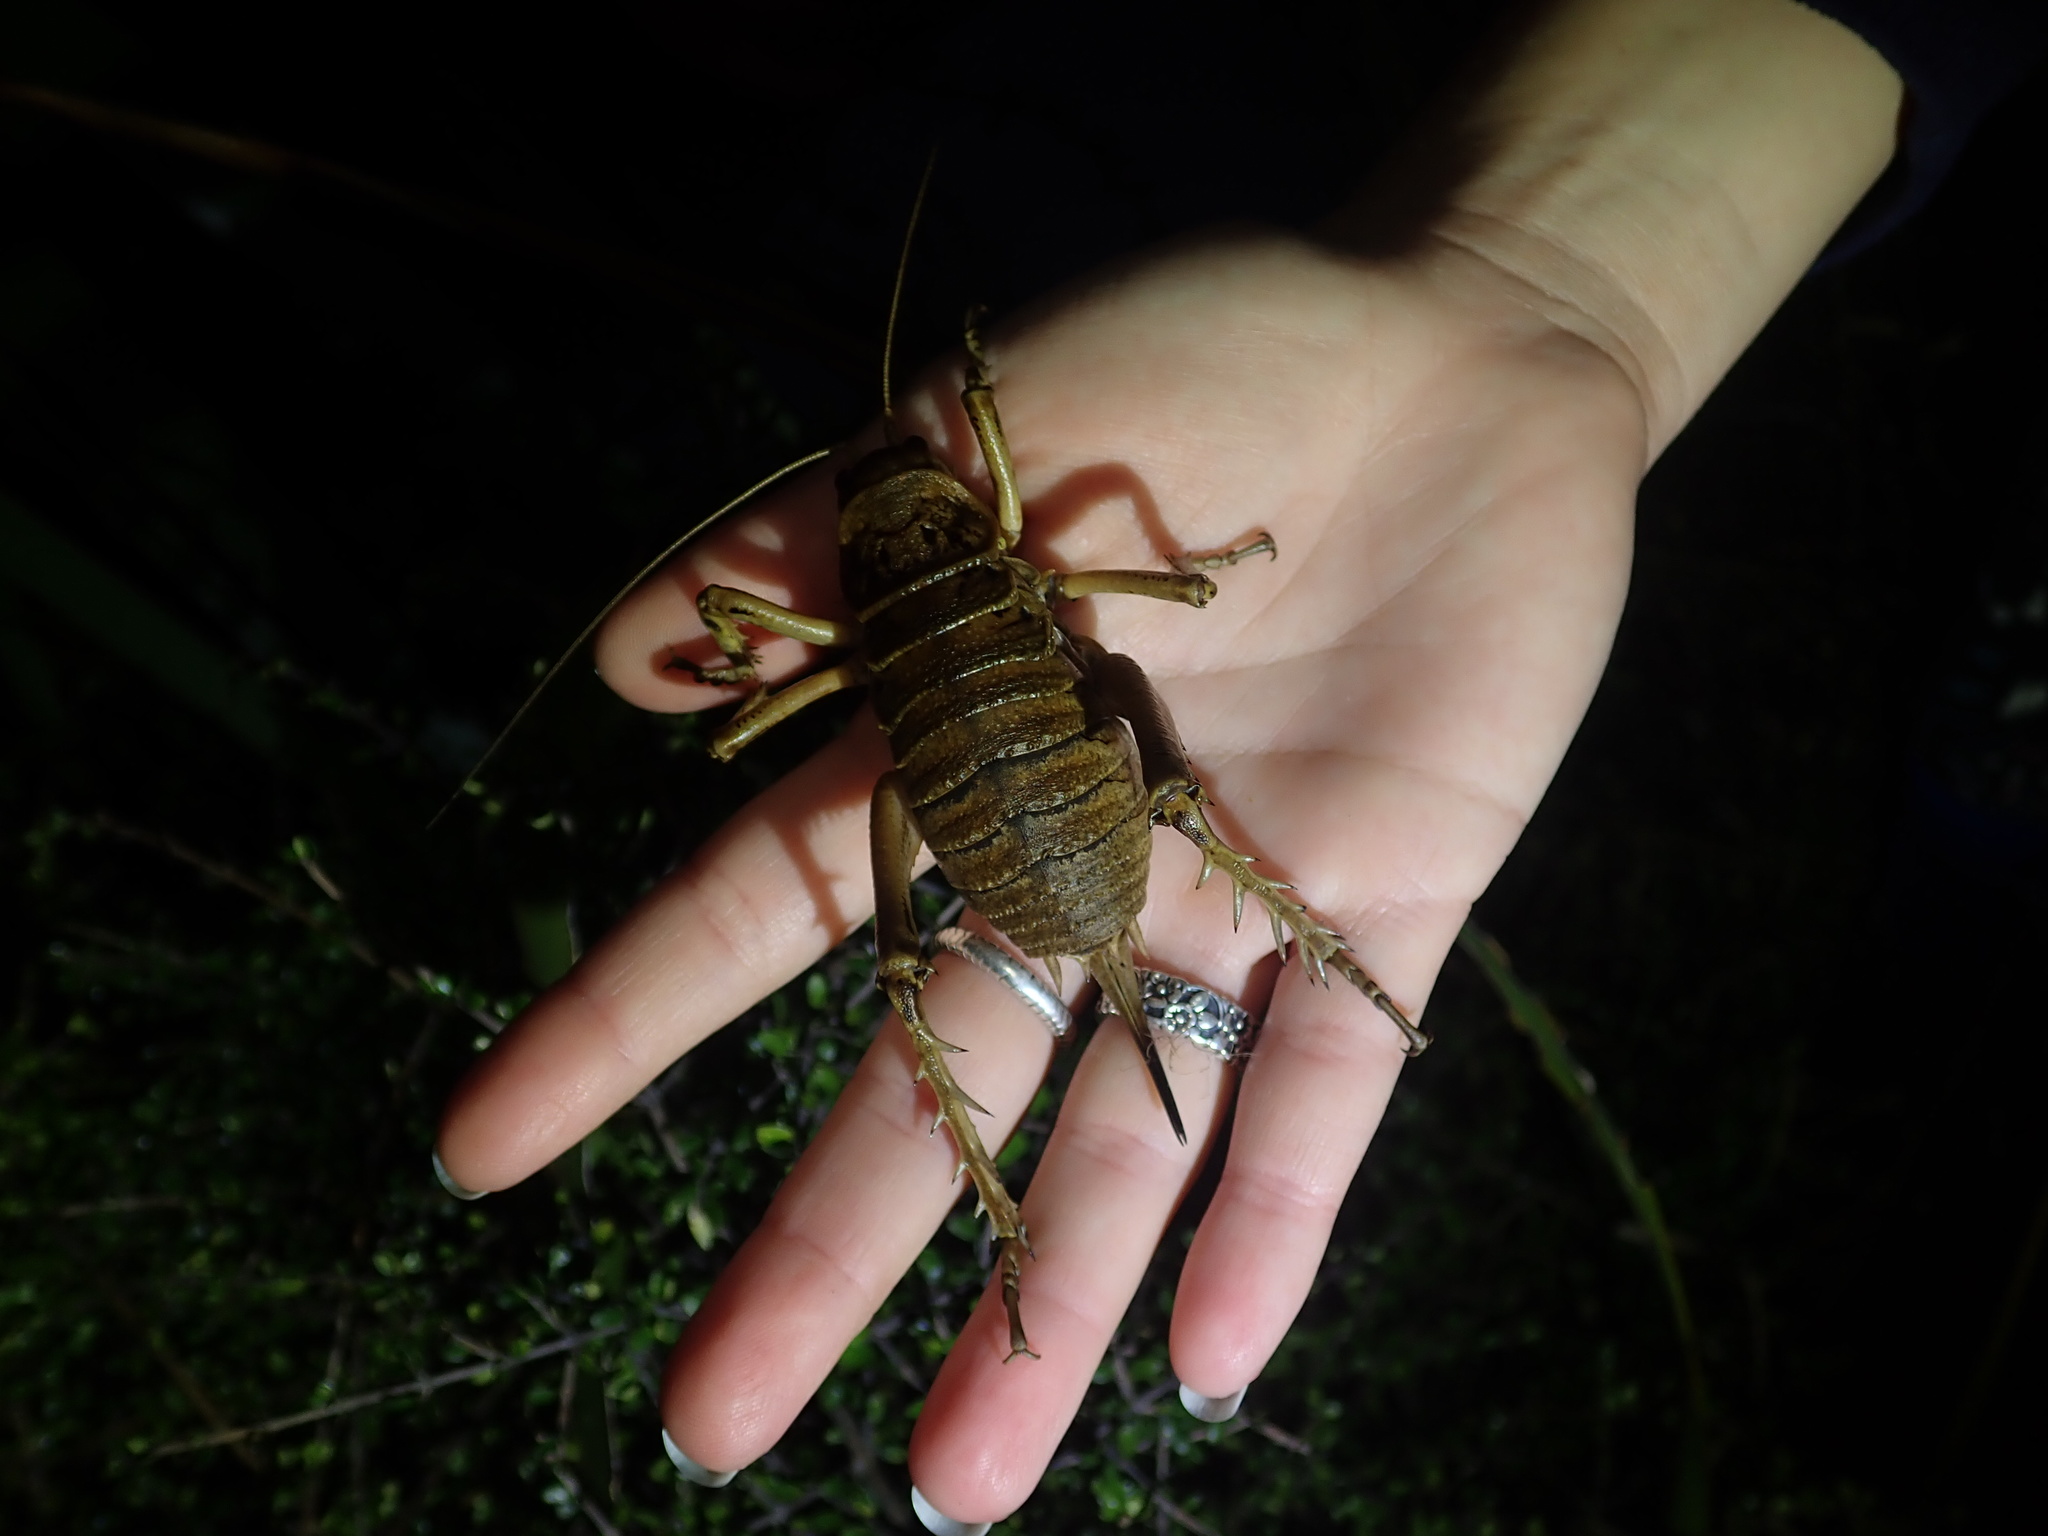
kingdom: Animalia
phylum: Arthropoda
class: Insecta
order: Orthoptera
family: Anostostomatidae
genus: Deinacrida
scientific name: Deinacrida rugosa
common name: Stephens island weta
